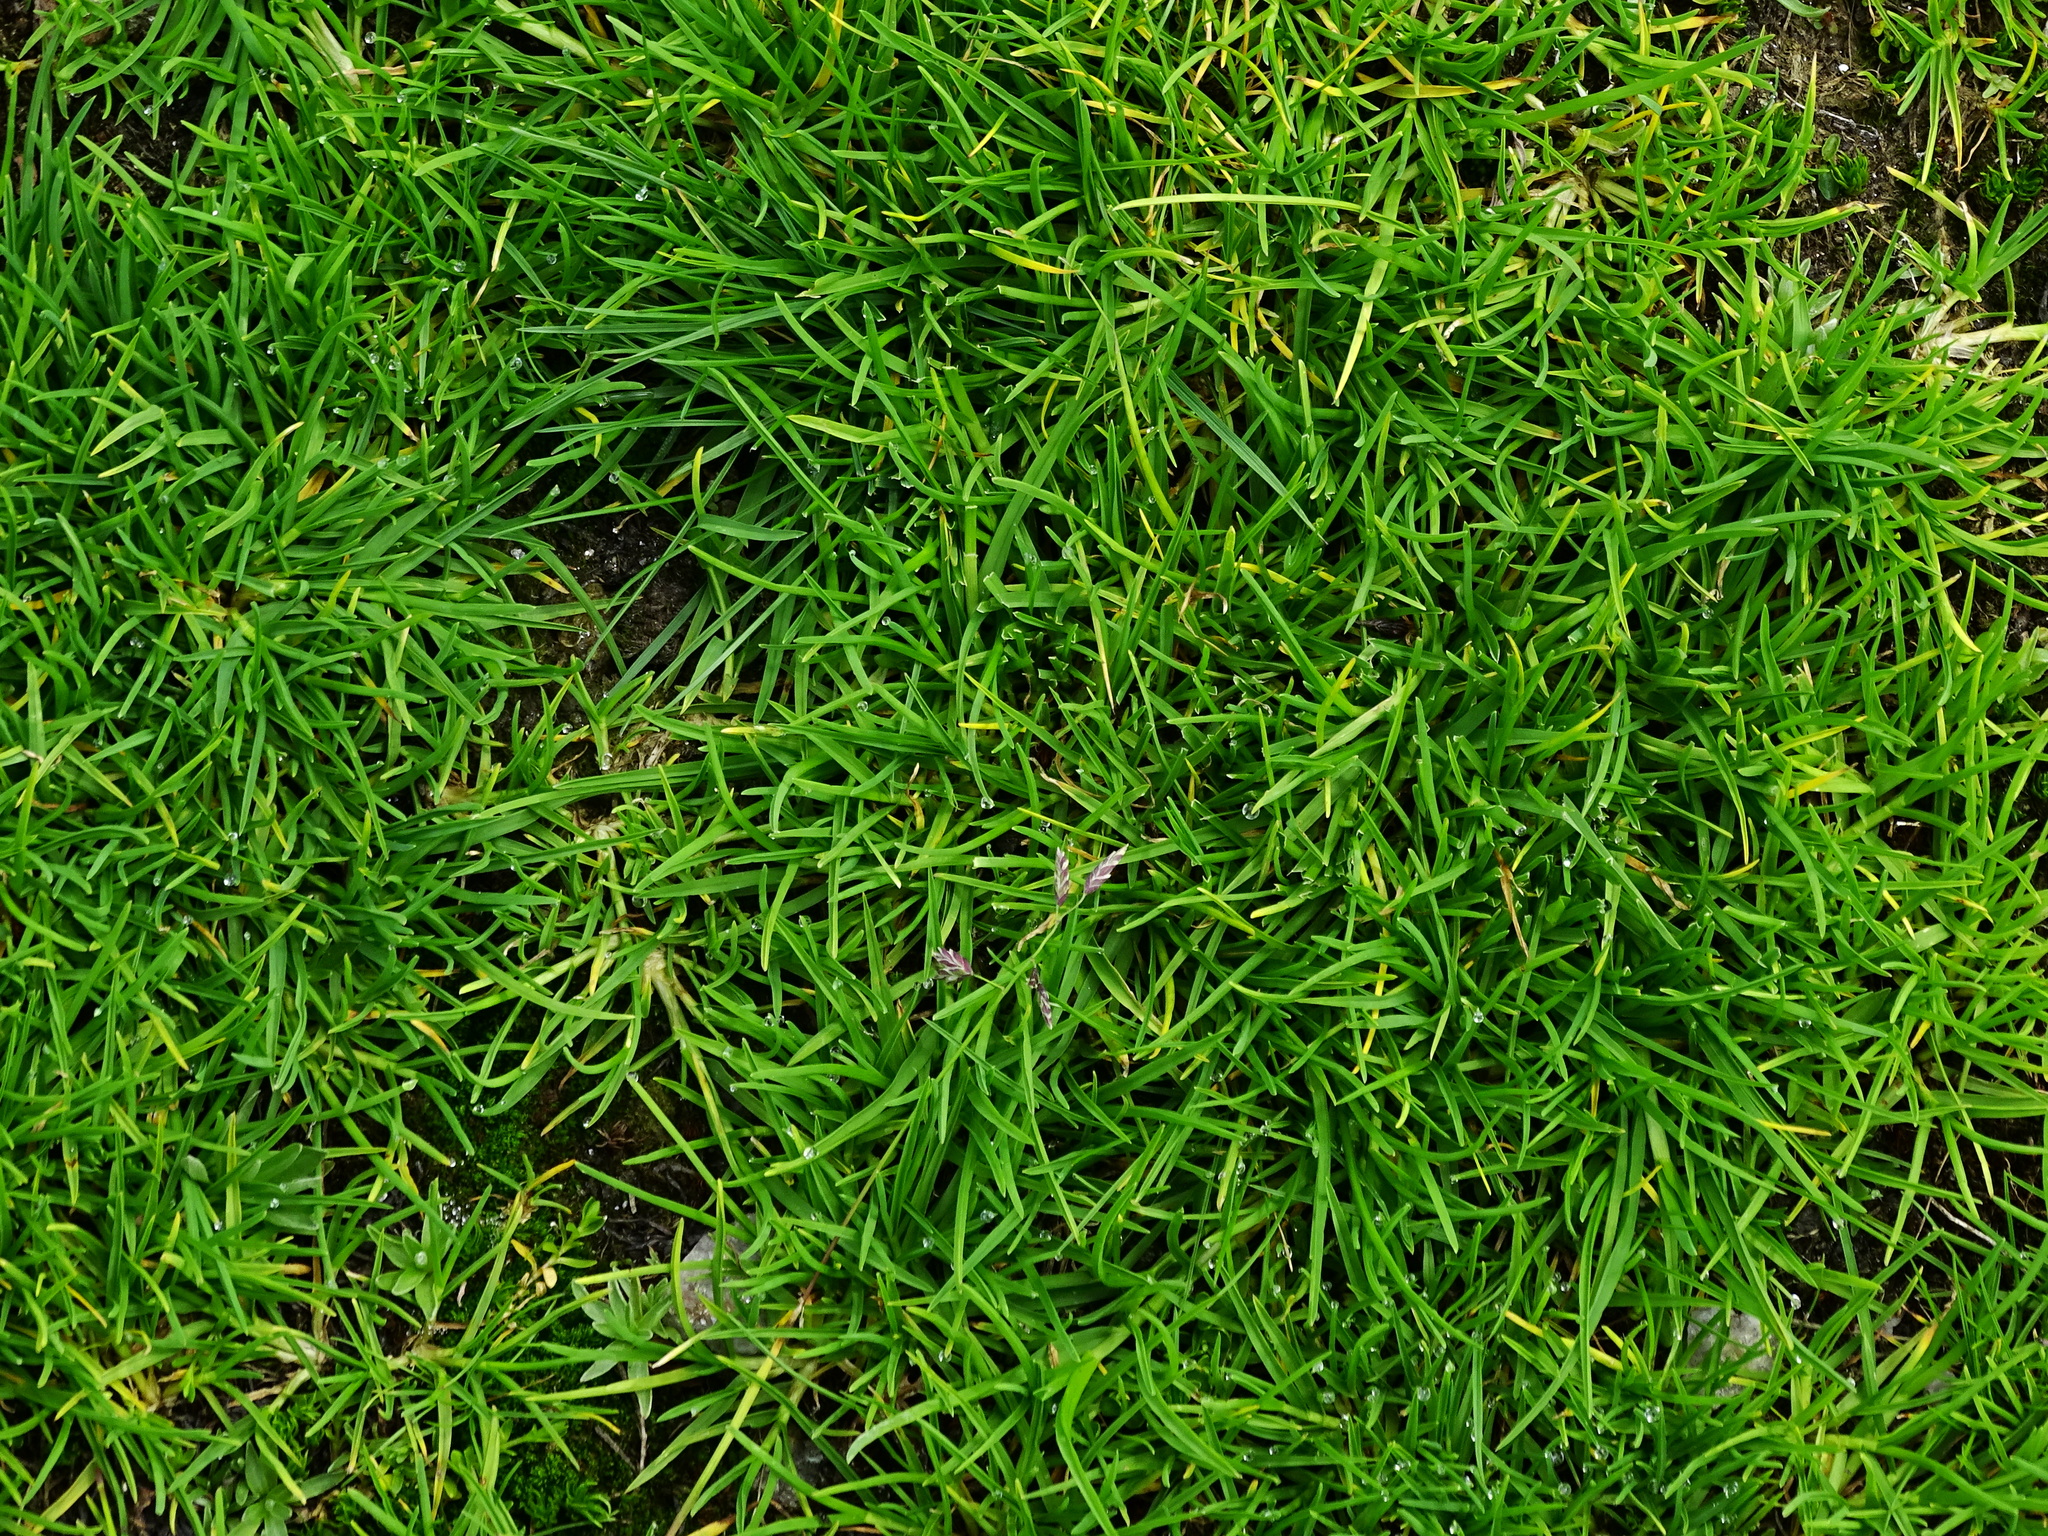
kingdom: Plantae
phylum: Tracheophyta
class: Liliopsida
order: Poales
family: Poaceae
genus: Poa
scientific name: Poa supina
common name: Supina bluegrass
